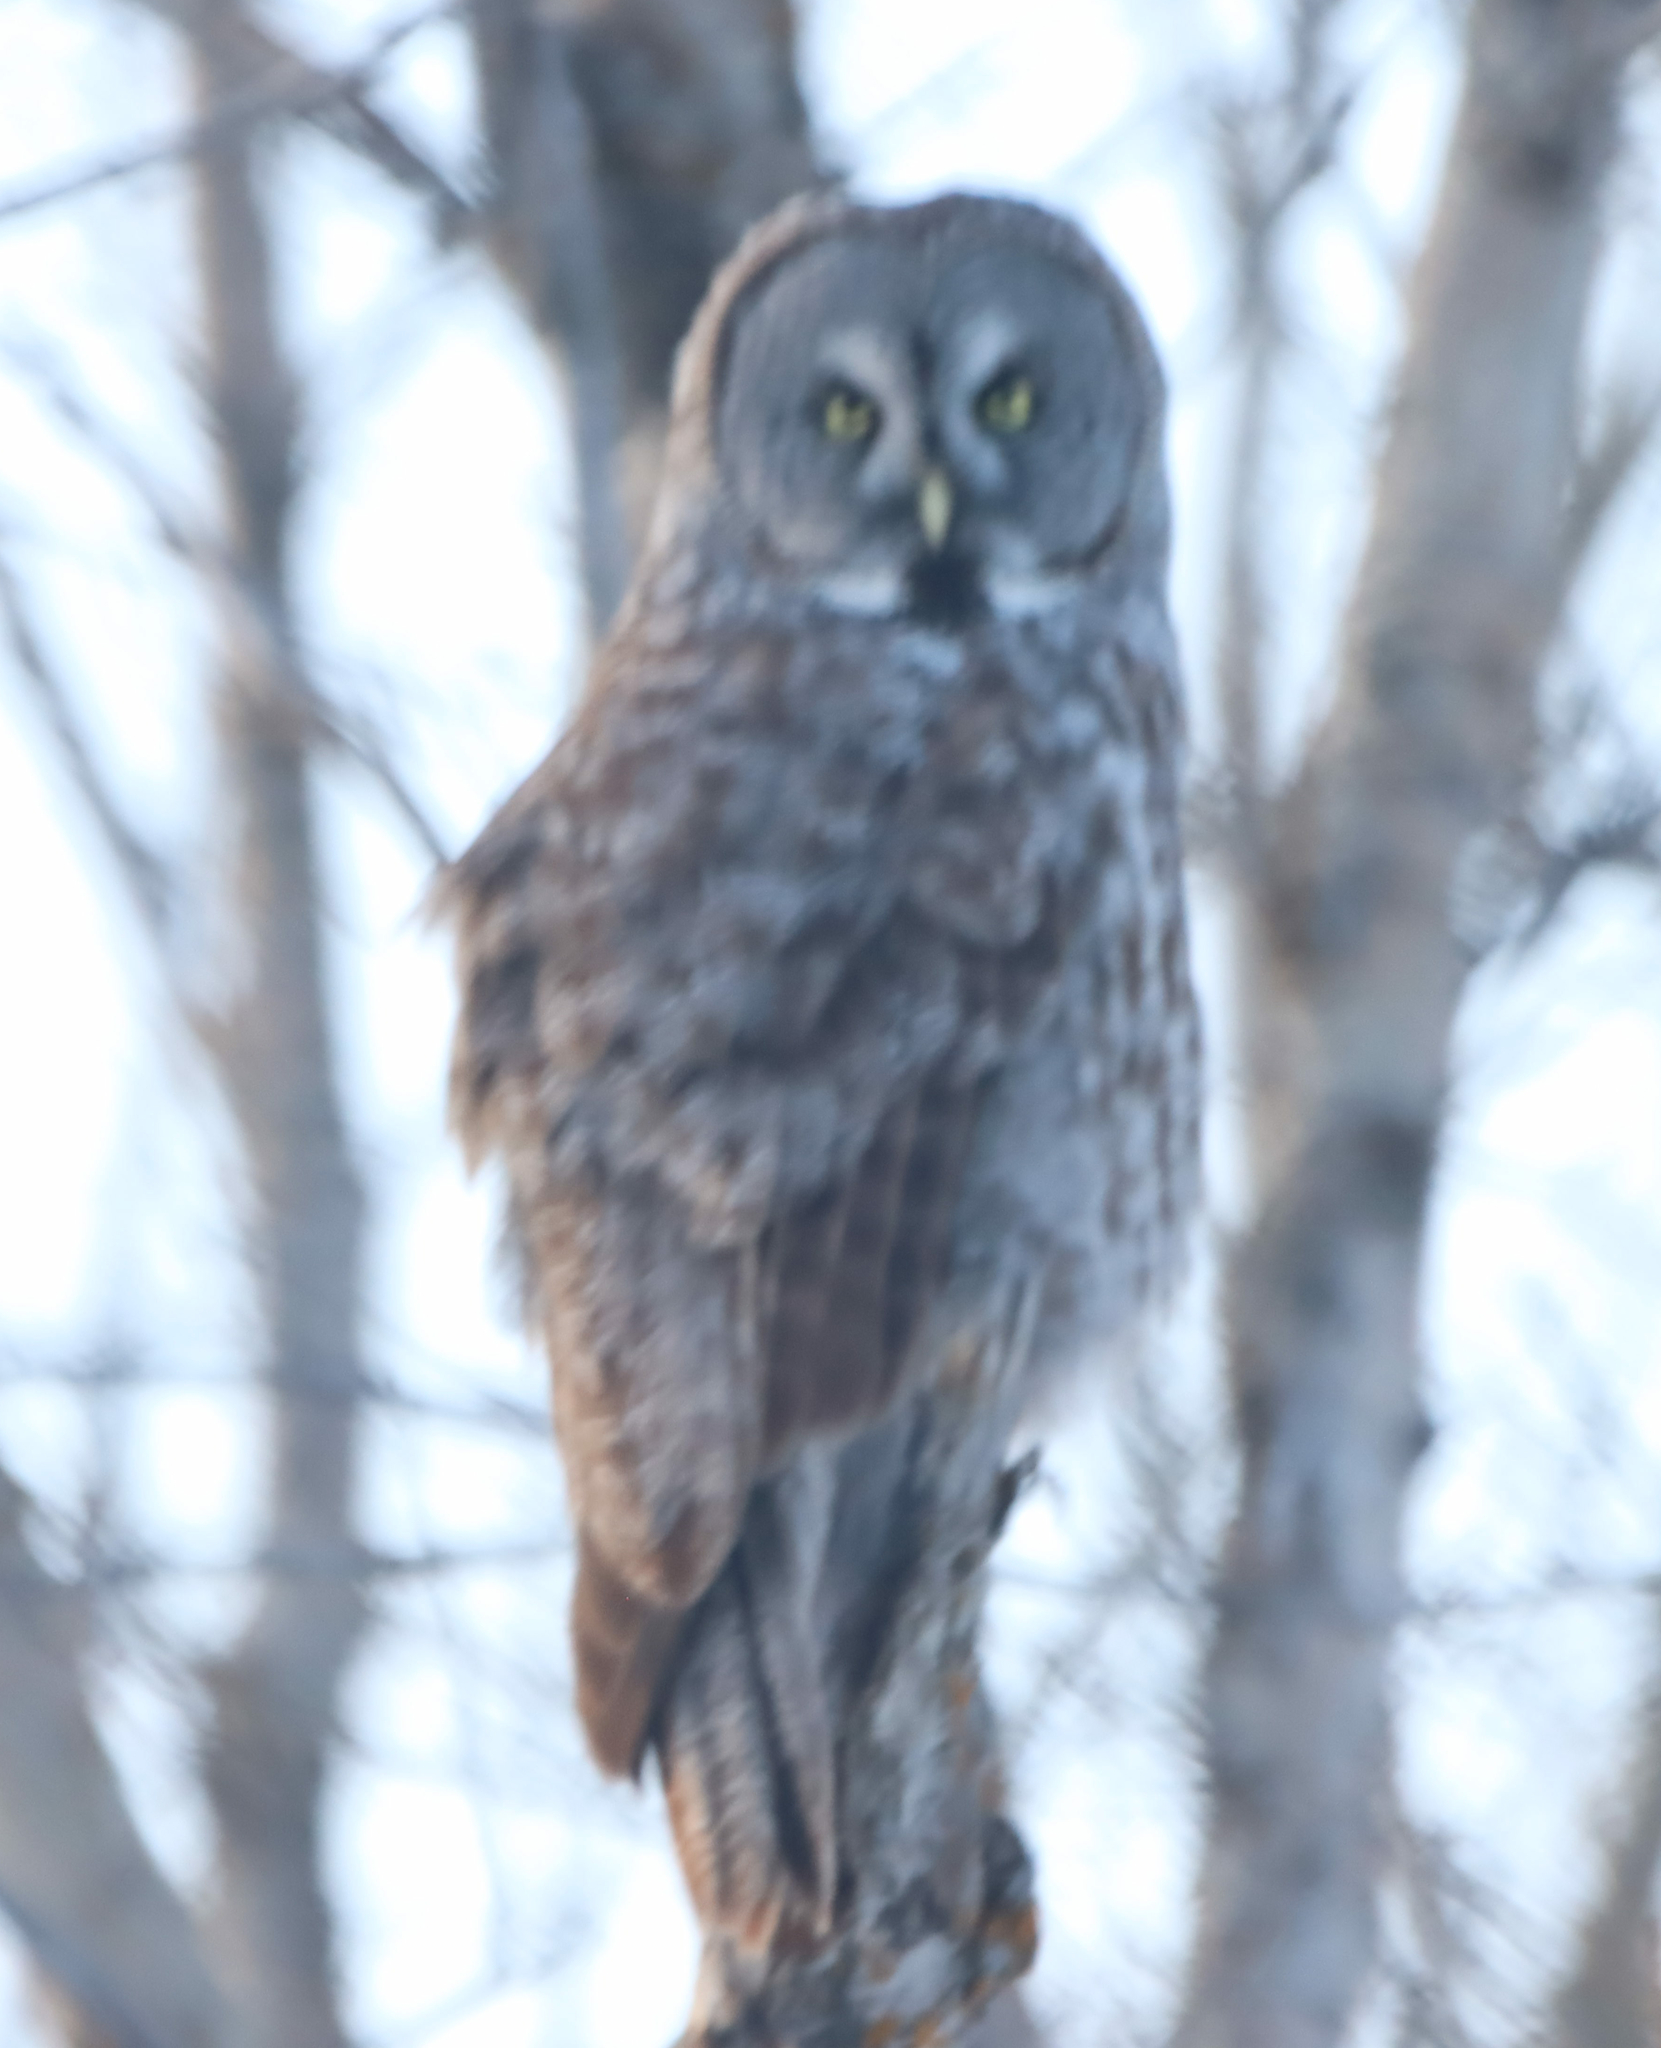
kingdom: Animalia
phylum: Chordata
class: Aves
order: Strigiformes
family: Strigidae
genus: Strix
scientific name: Strix nebulosa
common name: Great grey owl
